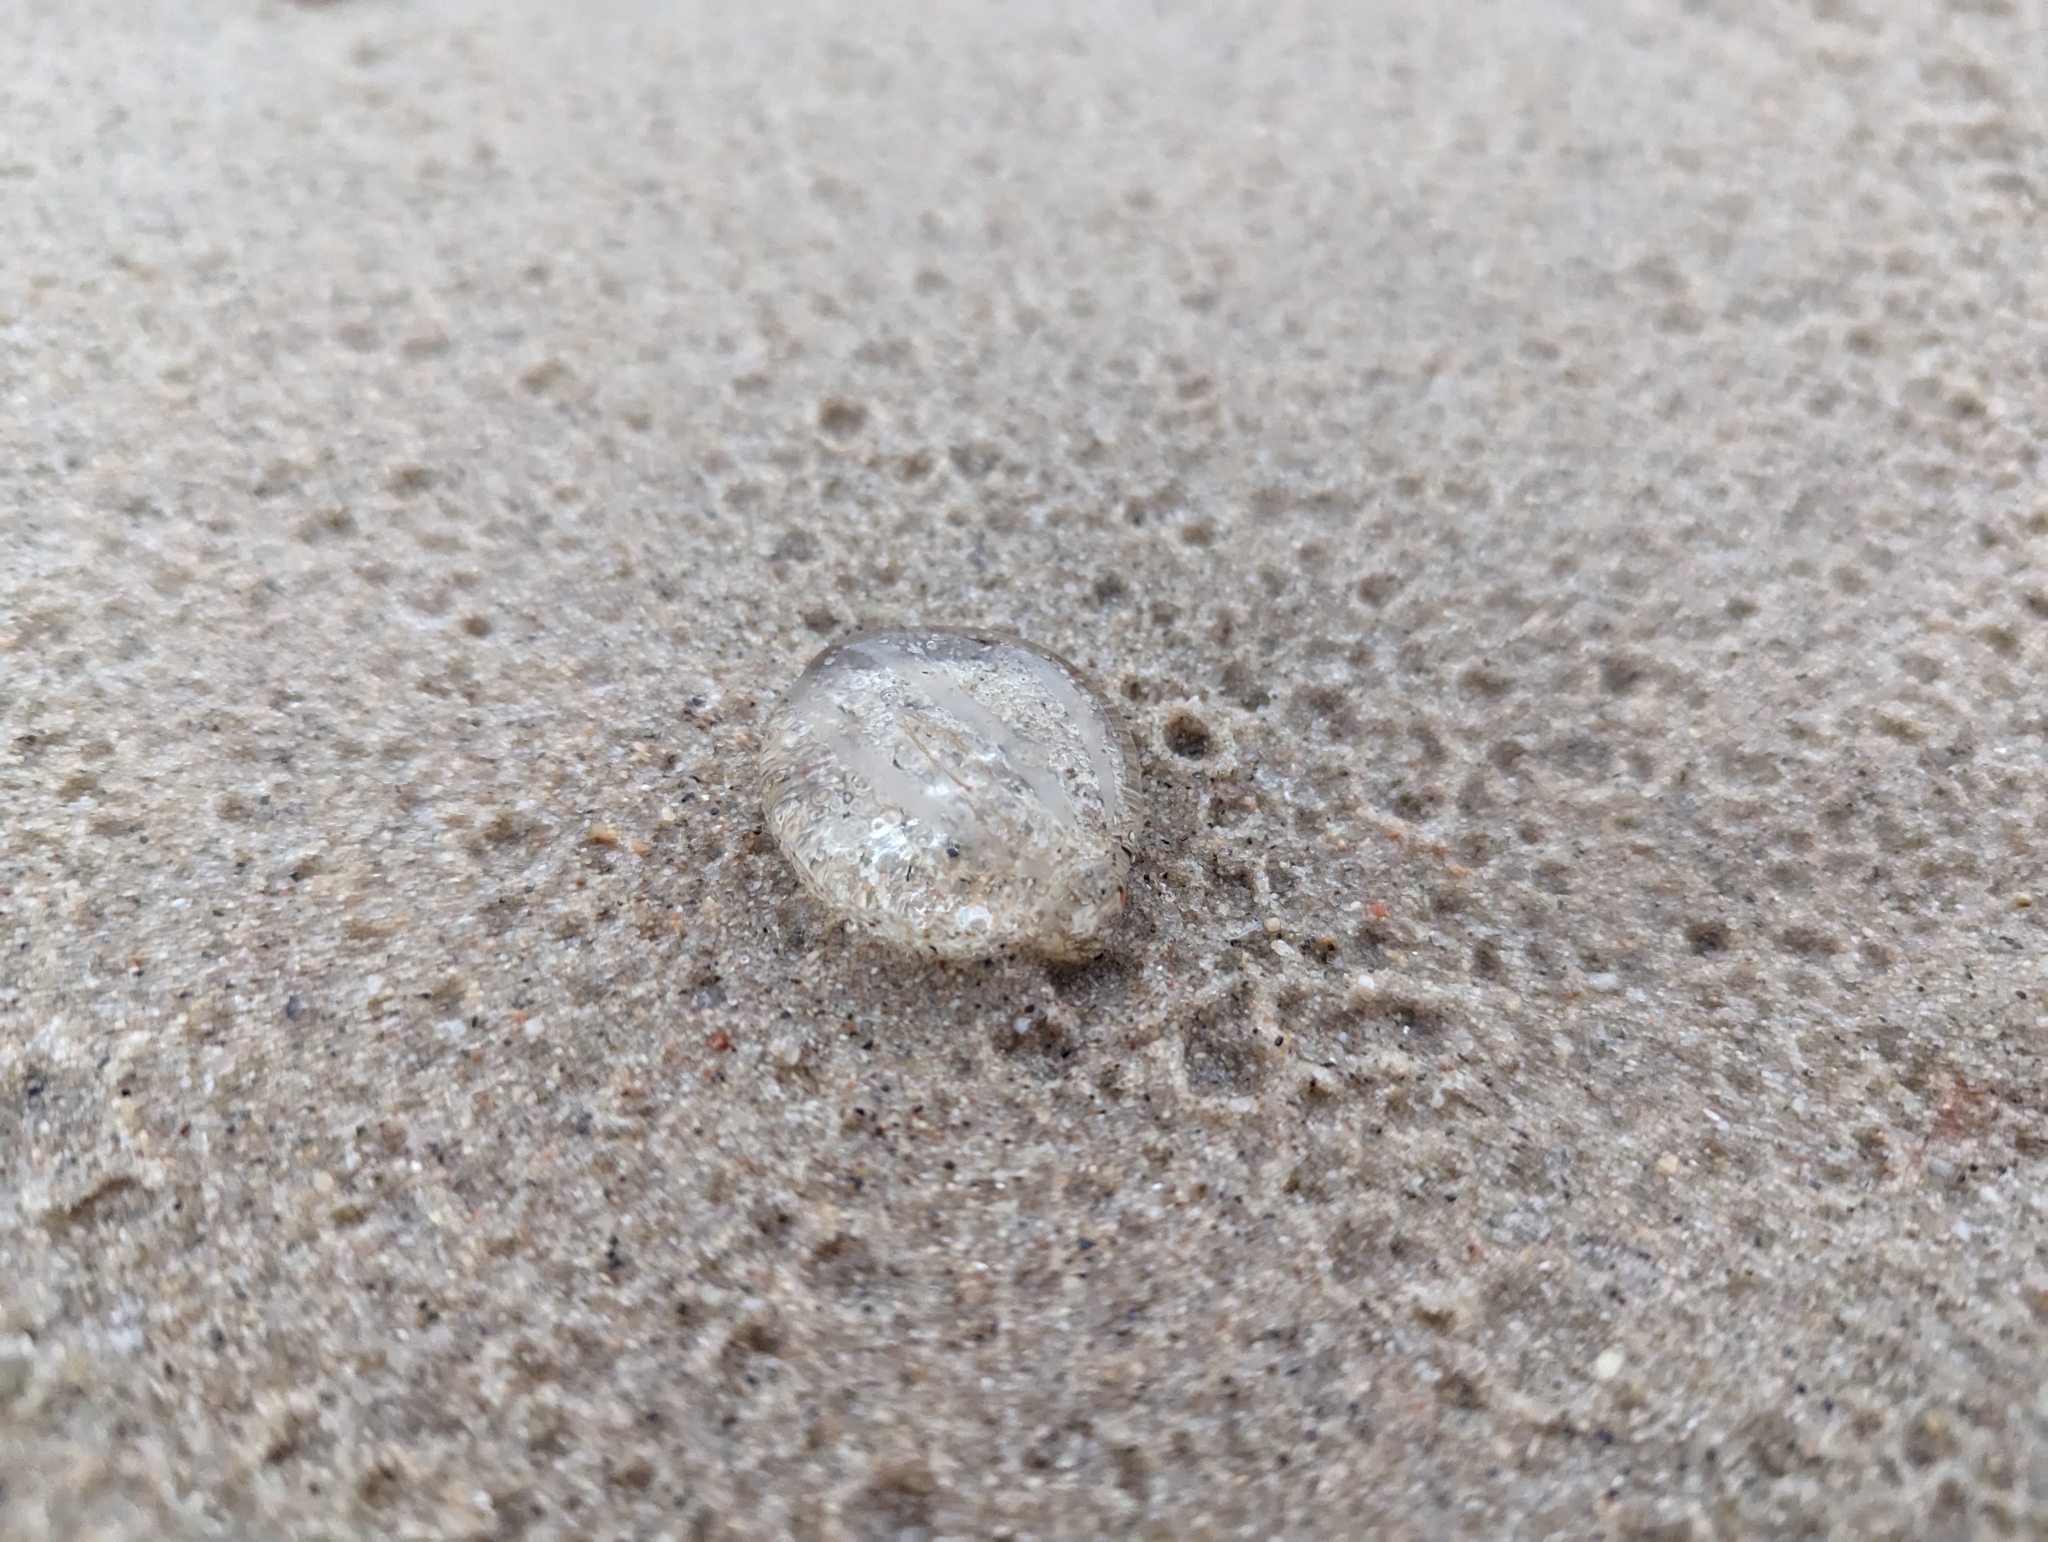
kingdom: Animalia
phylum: Ctenophora
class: Tentaculata
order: Cydippida
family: Pleurobrachiidae
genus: Pleurobrachia
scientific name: Pleurobrachia pileus
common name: Sea gooseberry
